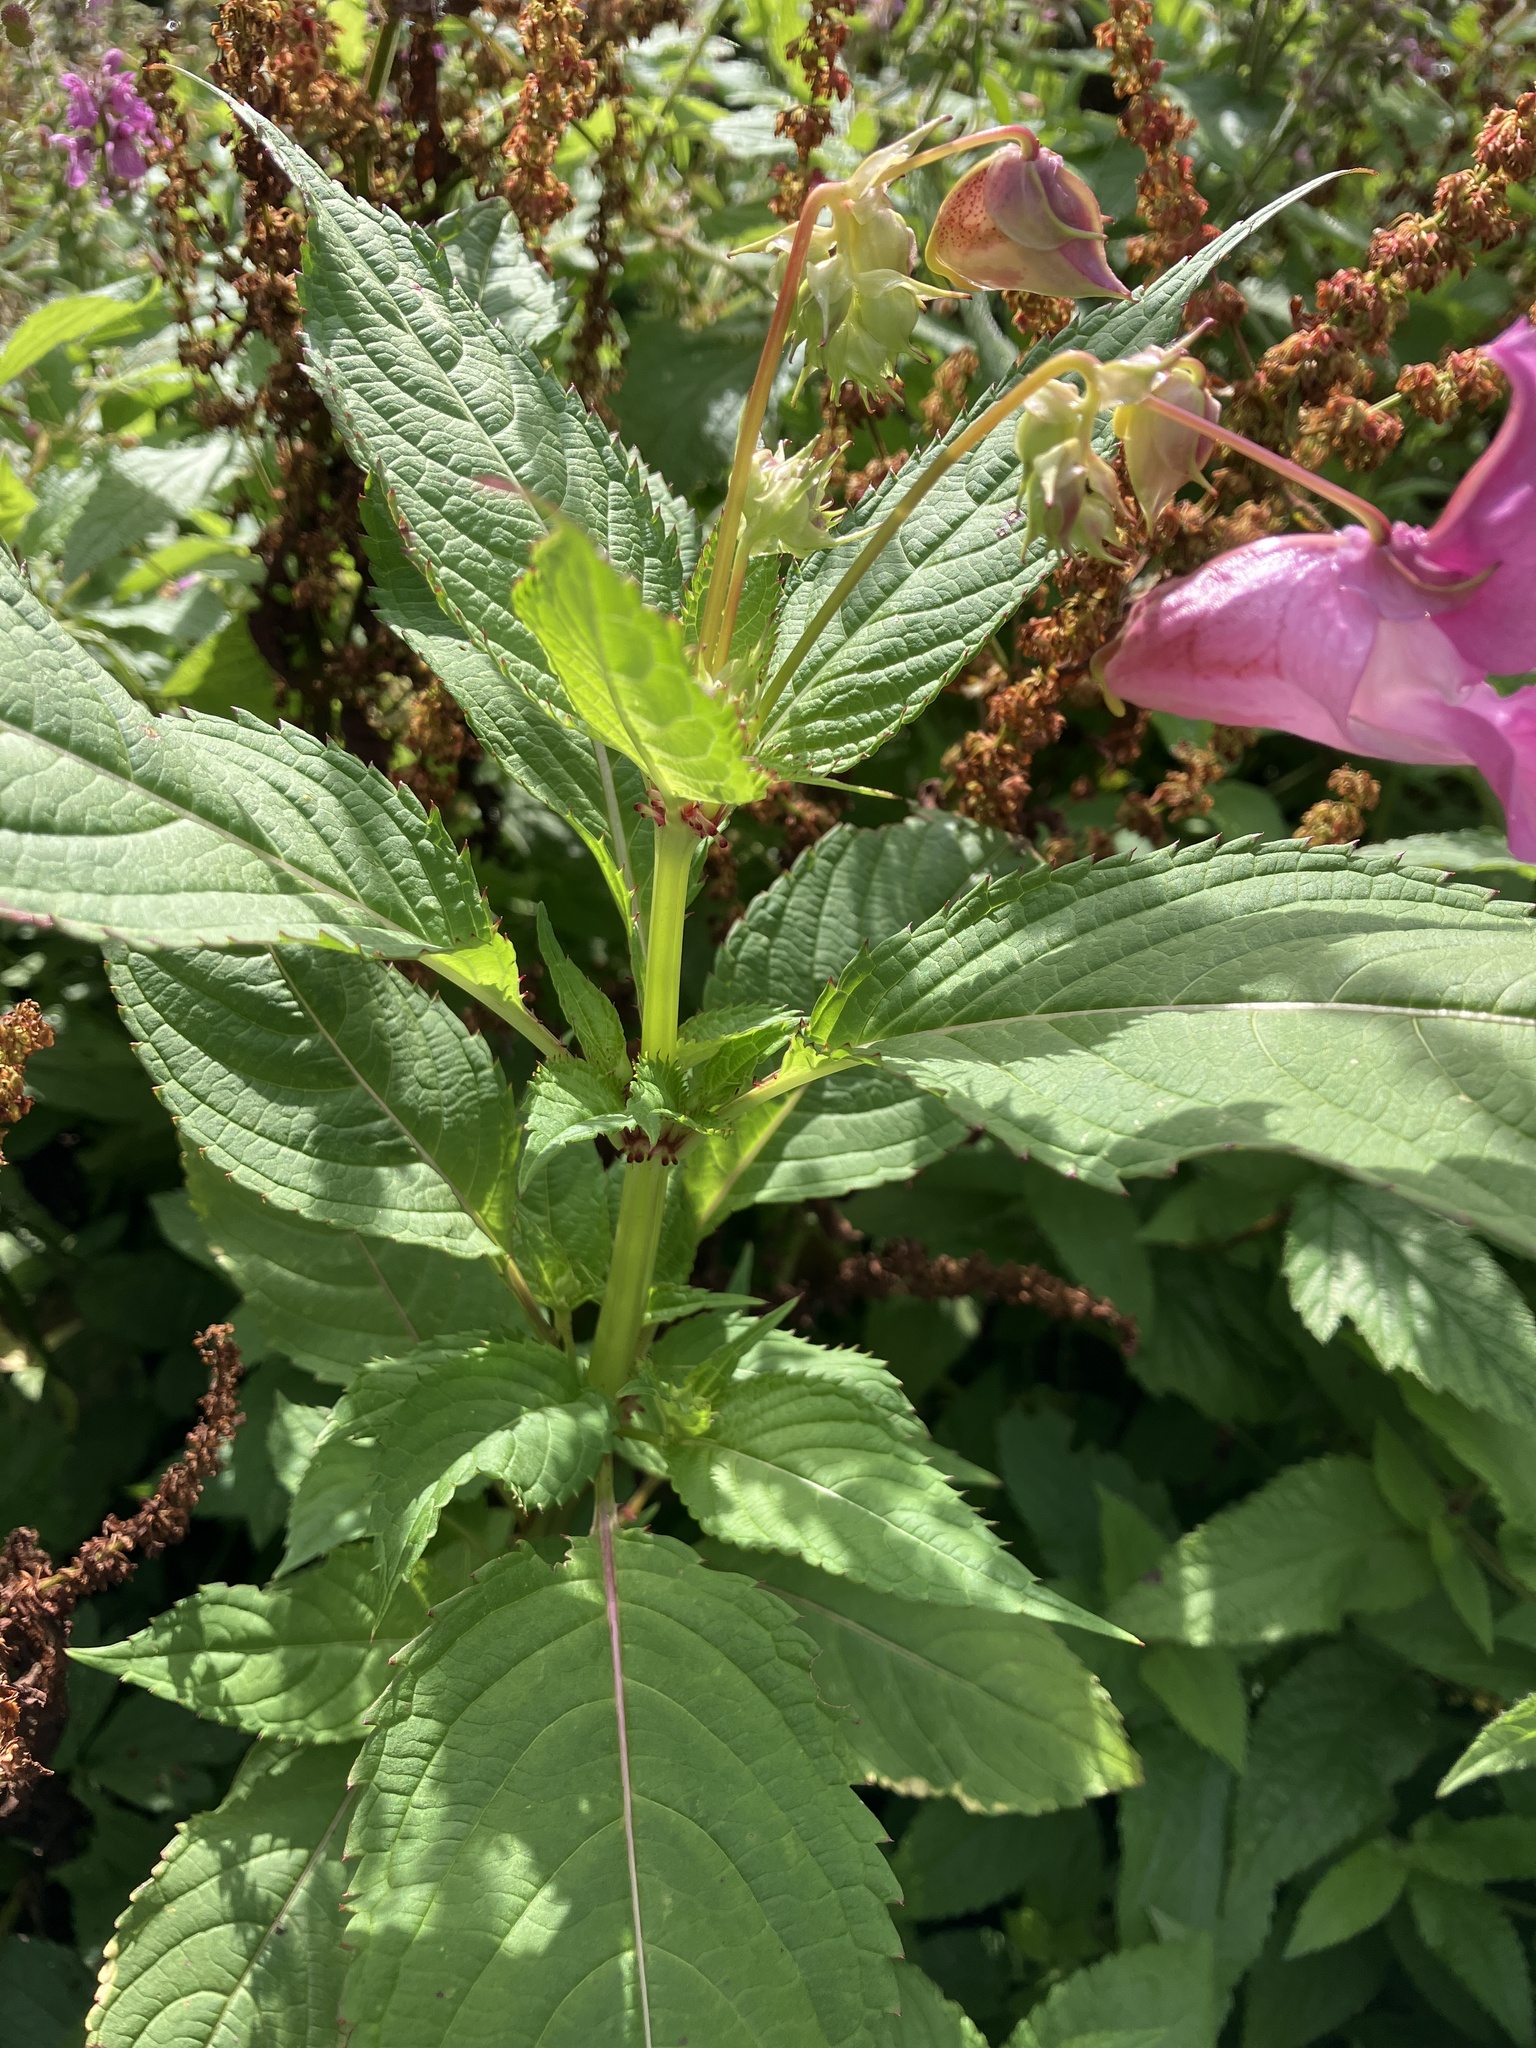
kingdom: Plantae
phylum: Tracheophyta
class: Magnoliopsida
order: Ericales
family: Balsaminaceae
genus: Impatiens
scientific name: Impatiens glandulifera
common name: Himalayan balsam
